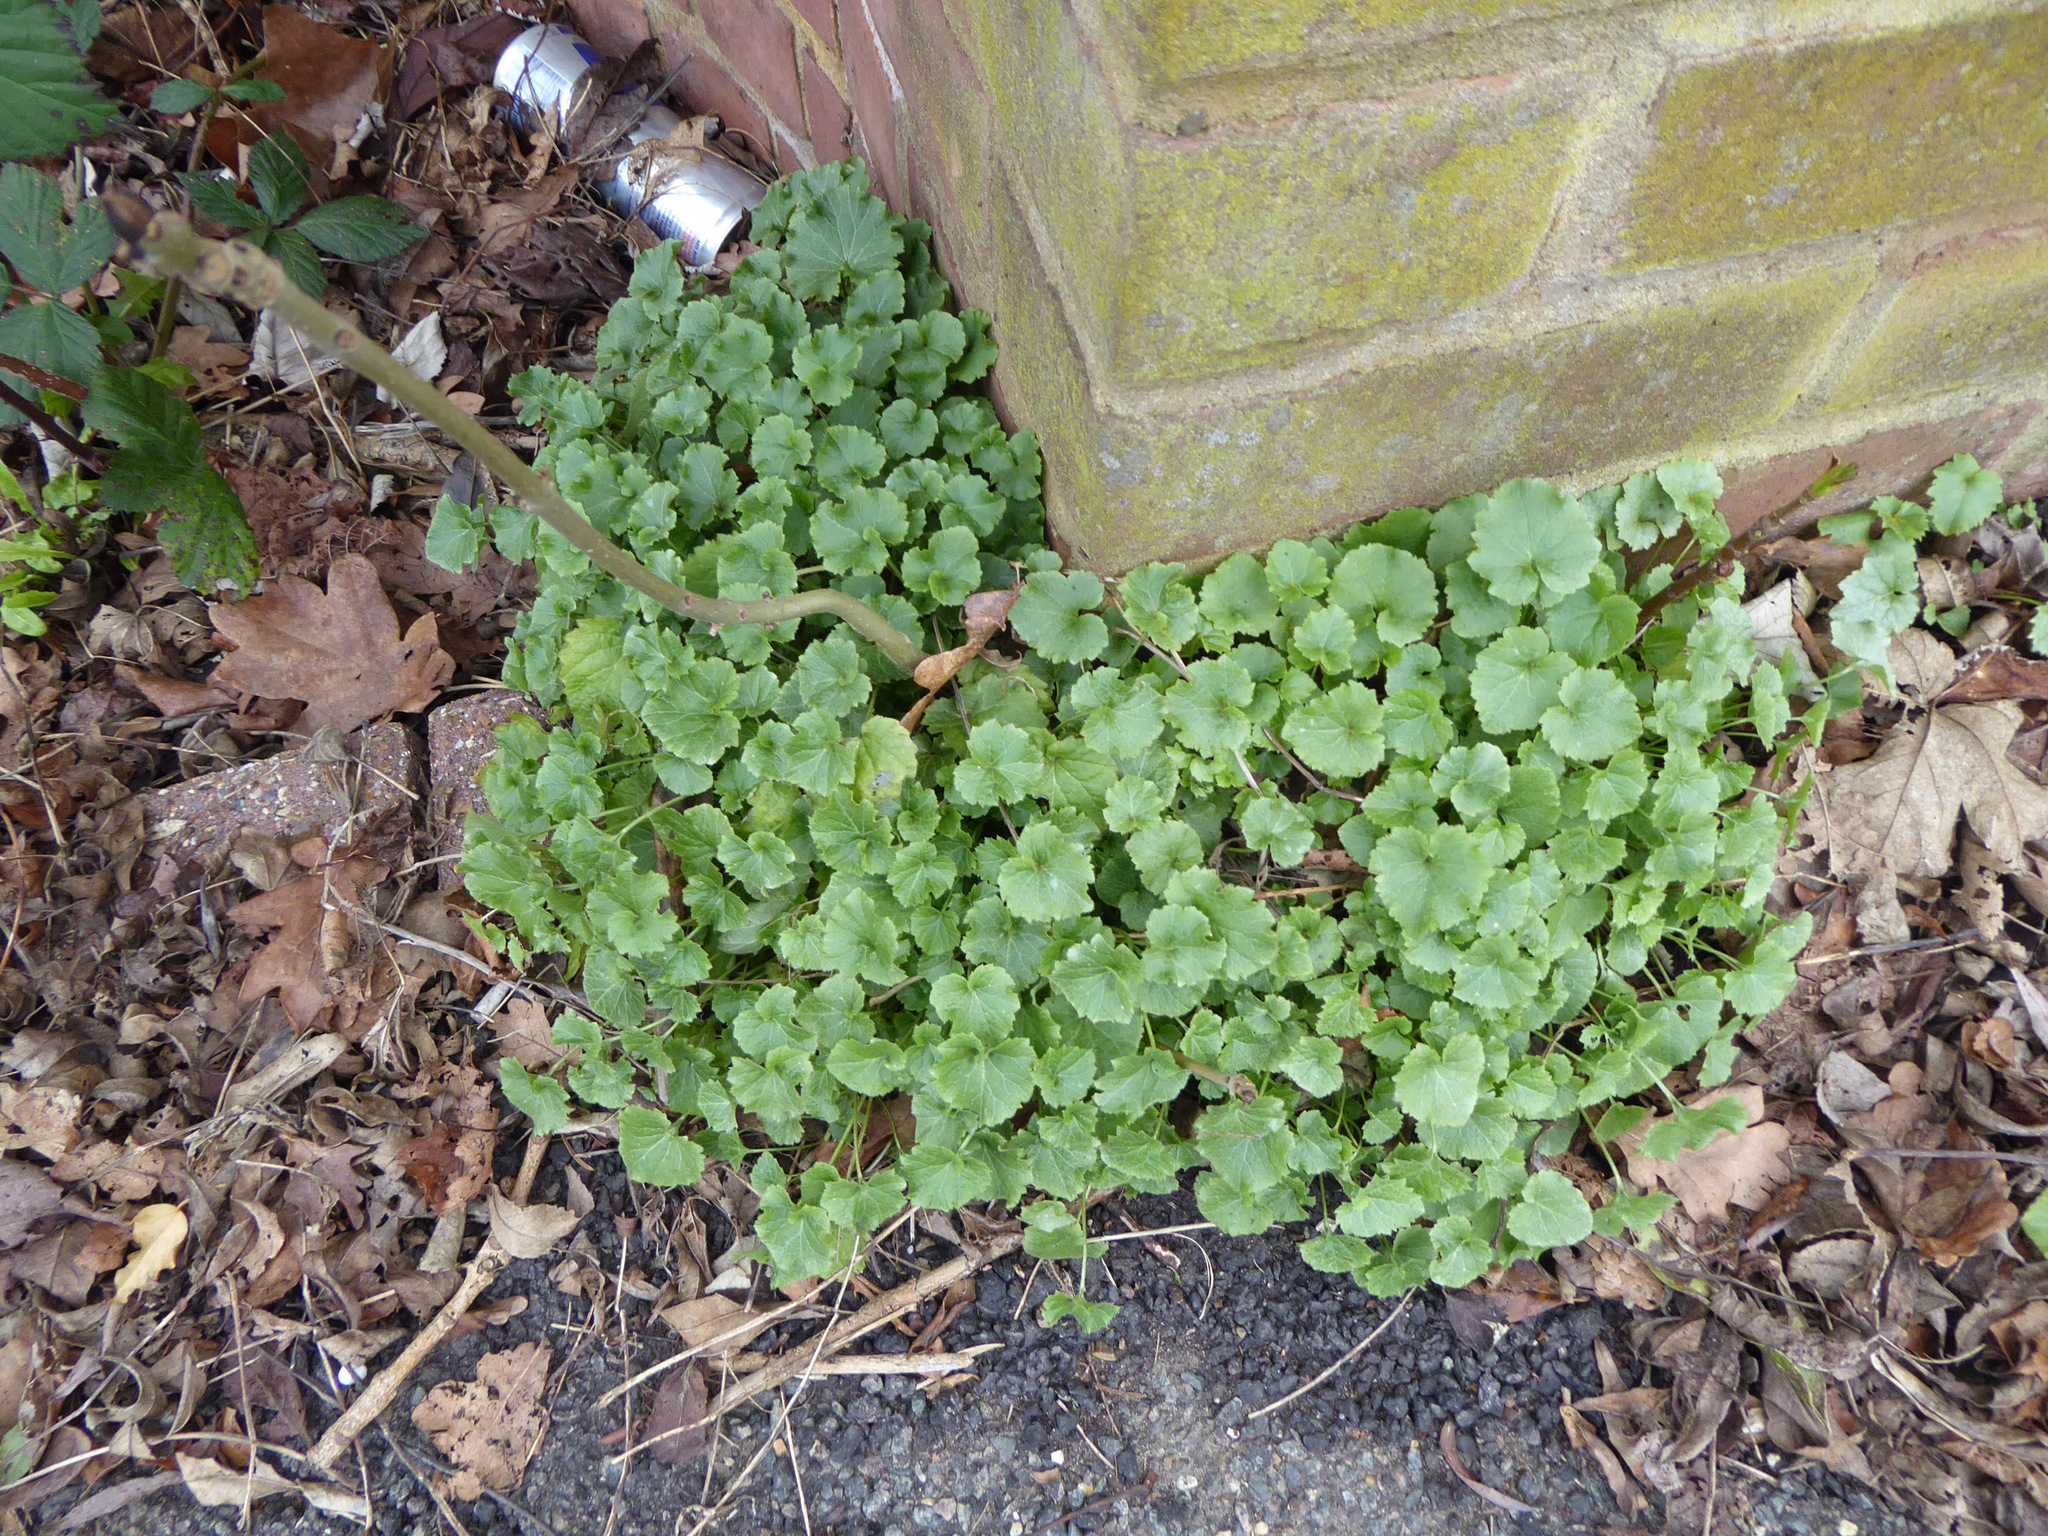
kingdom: Plantae
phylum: Tracheophyta
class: Magnoliopsida
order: Asterales
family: Campanulaceae
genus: Campanula
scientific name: Campanula portenschlagiana
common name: Adria bellflower
